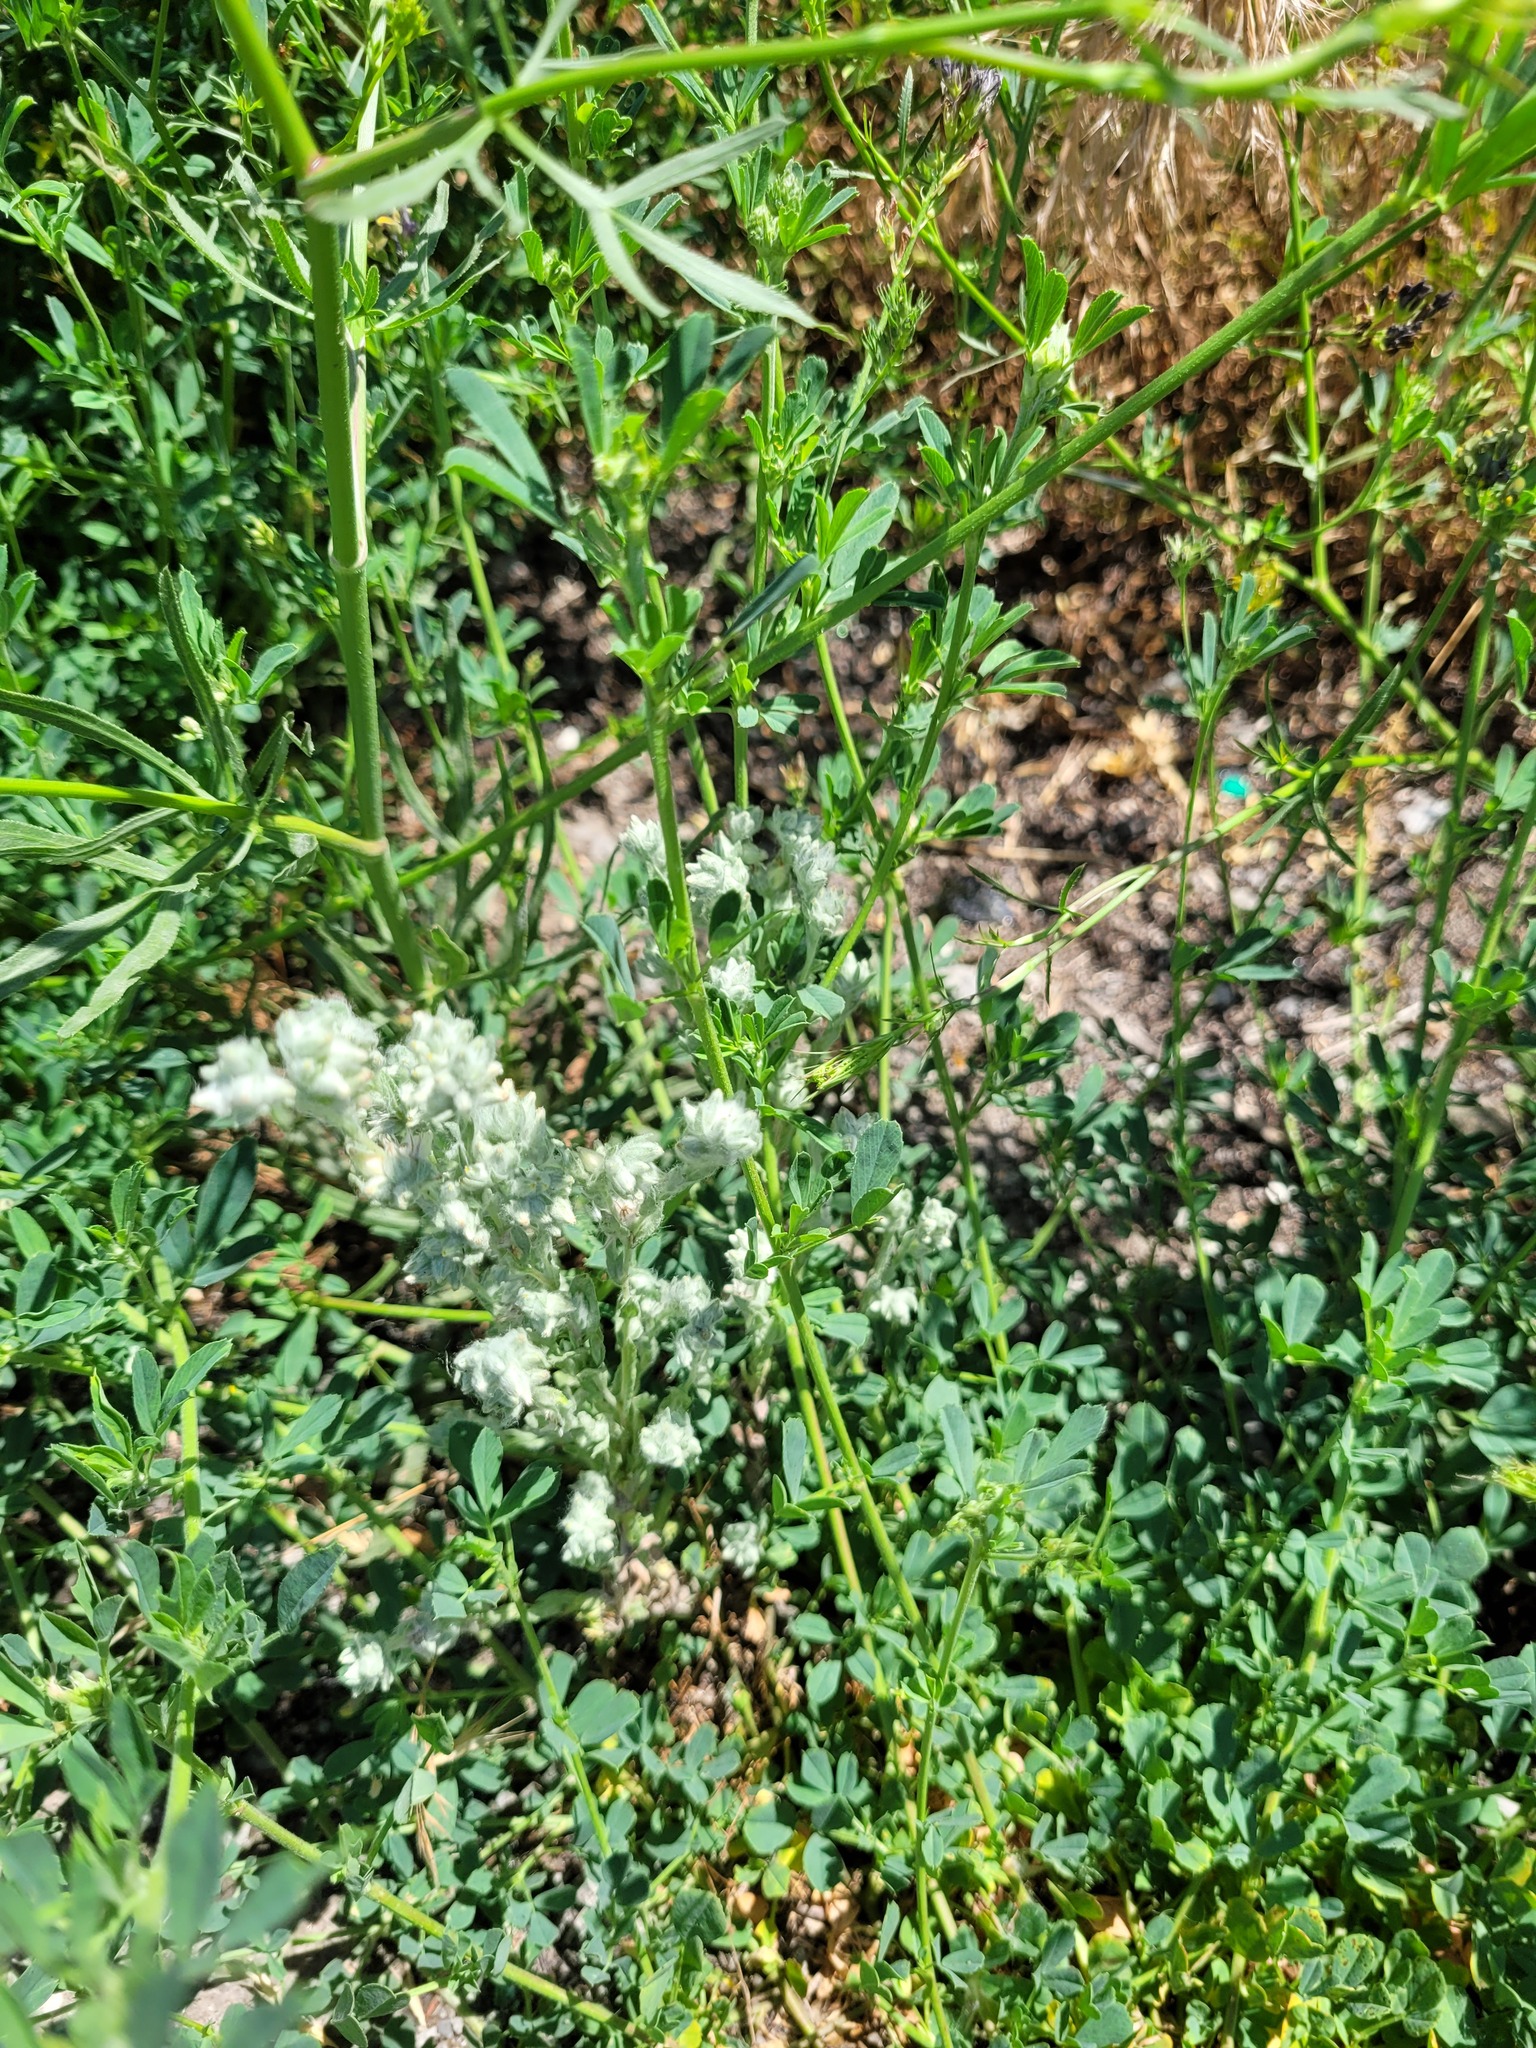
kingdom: Plantae
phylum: Tracheophyta
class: Magnoliopsida
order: Asterales
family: Asteraceae
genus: Filago
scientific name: Filago arvensis
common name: Field cudweed
